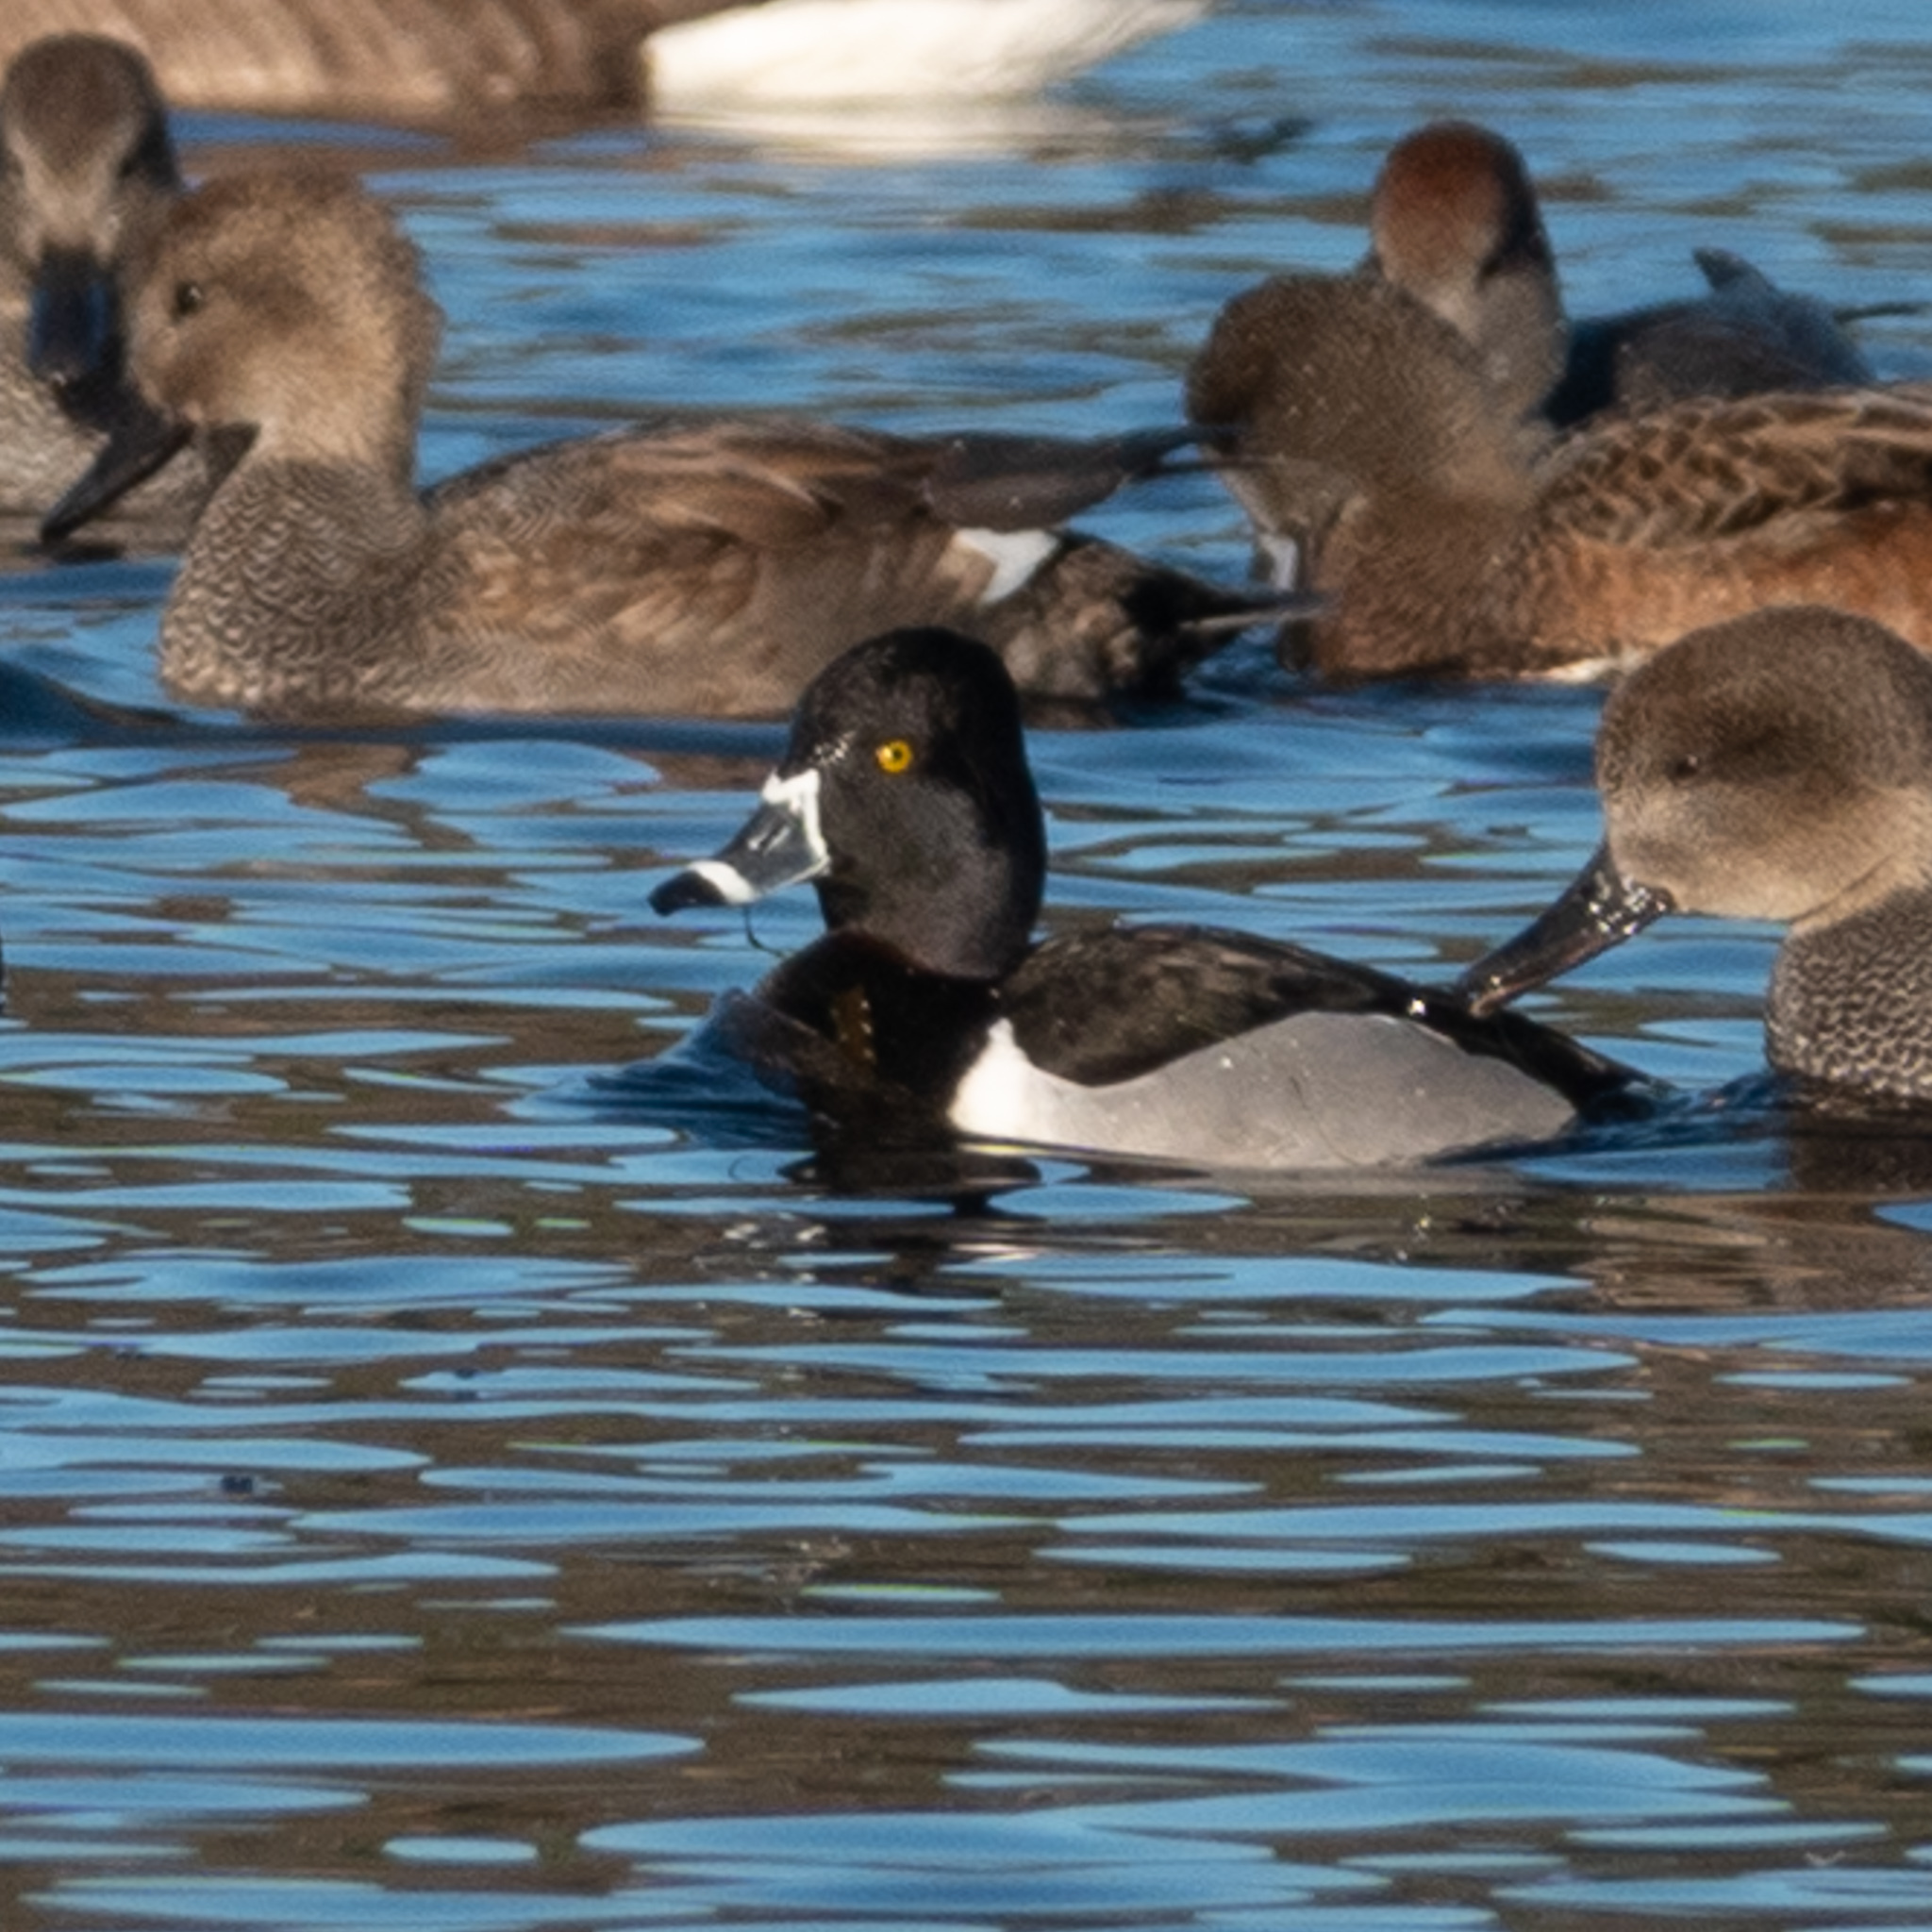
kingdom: Animalia
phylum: Chordata
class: Aves
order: Anseriformes
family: Anatidae
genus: Aythya
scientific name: Aythya collaris
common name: Ring-necked duck
